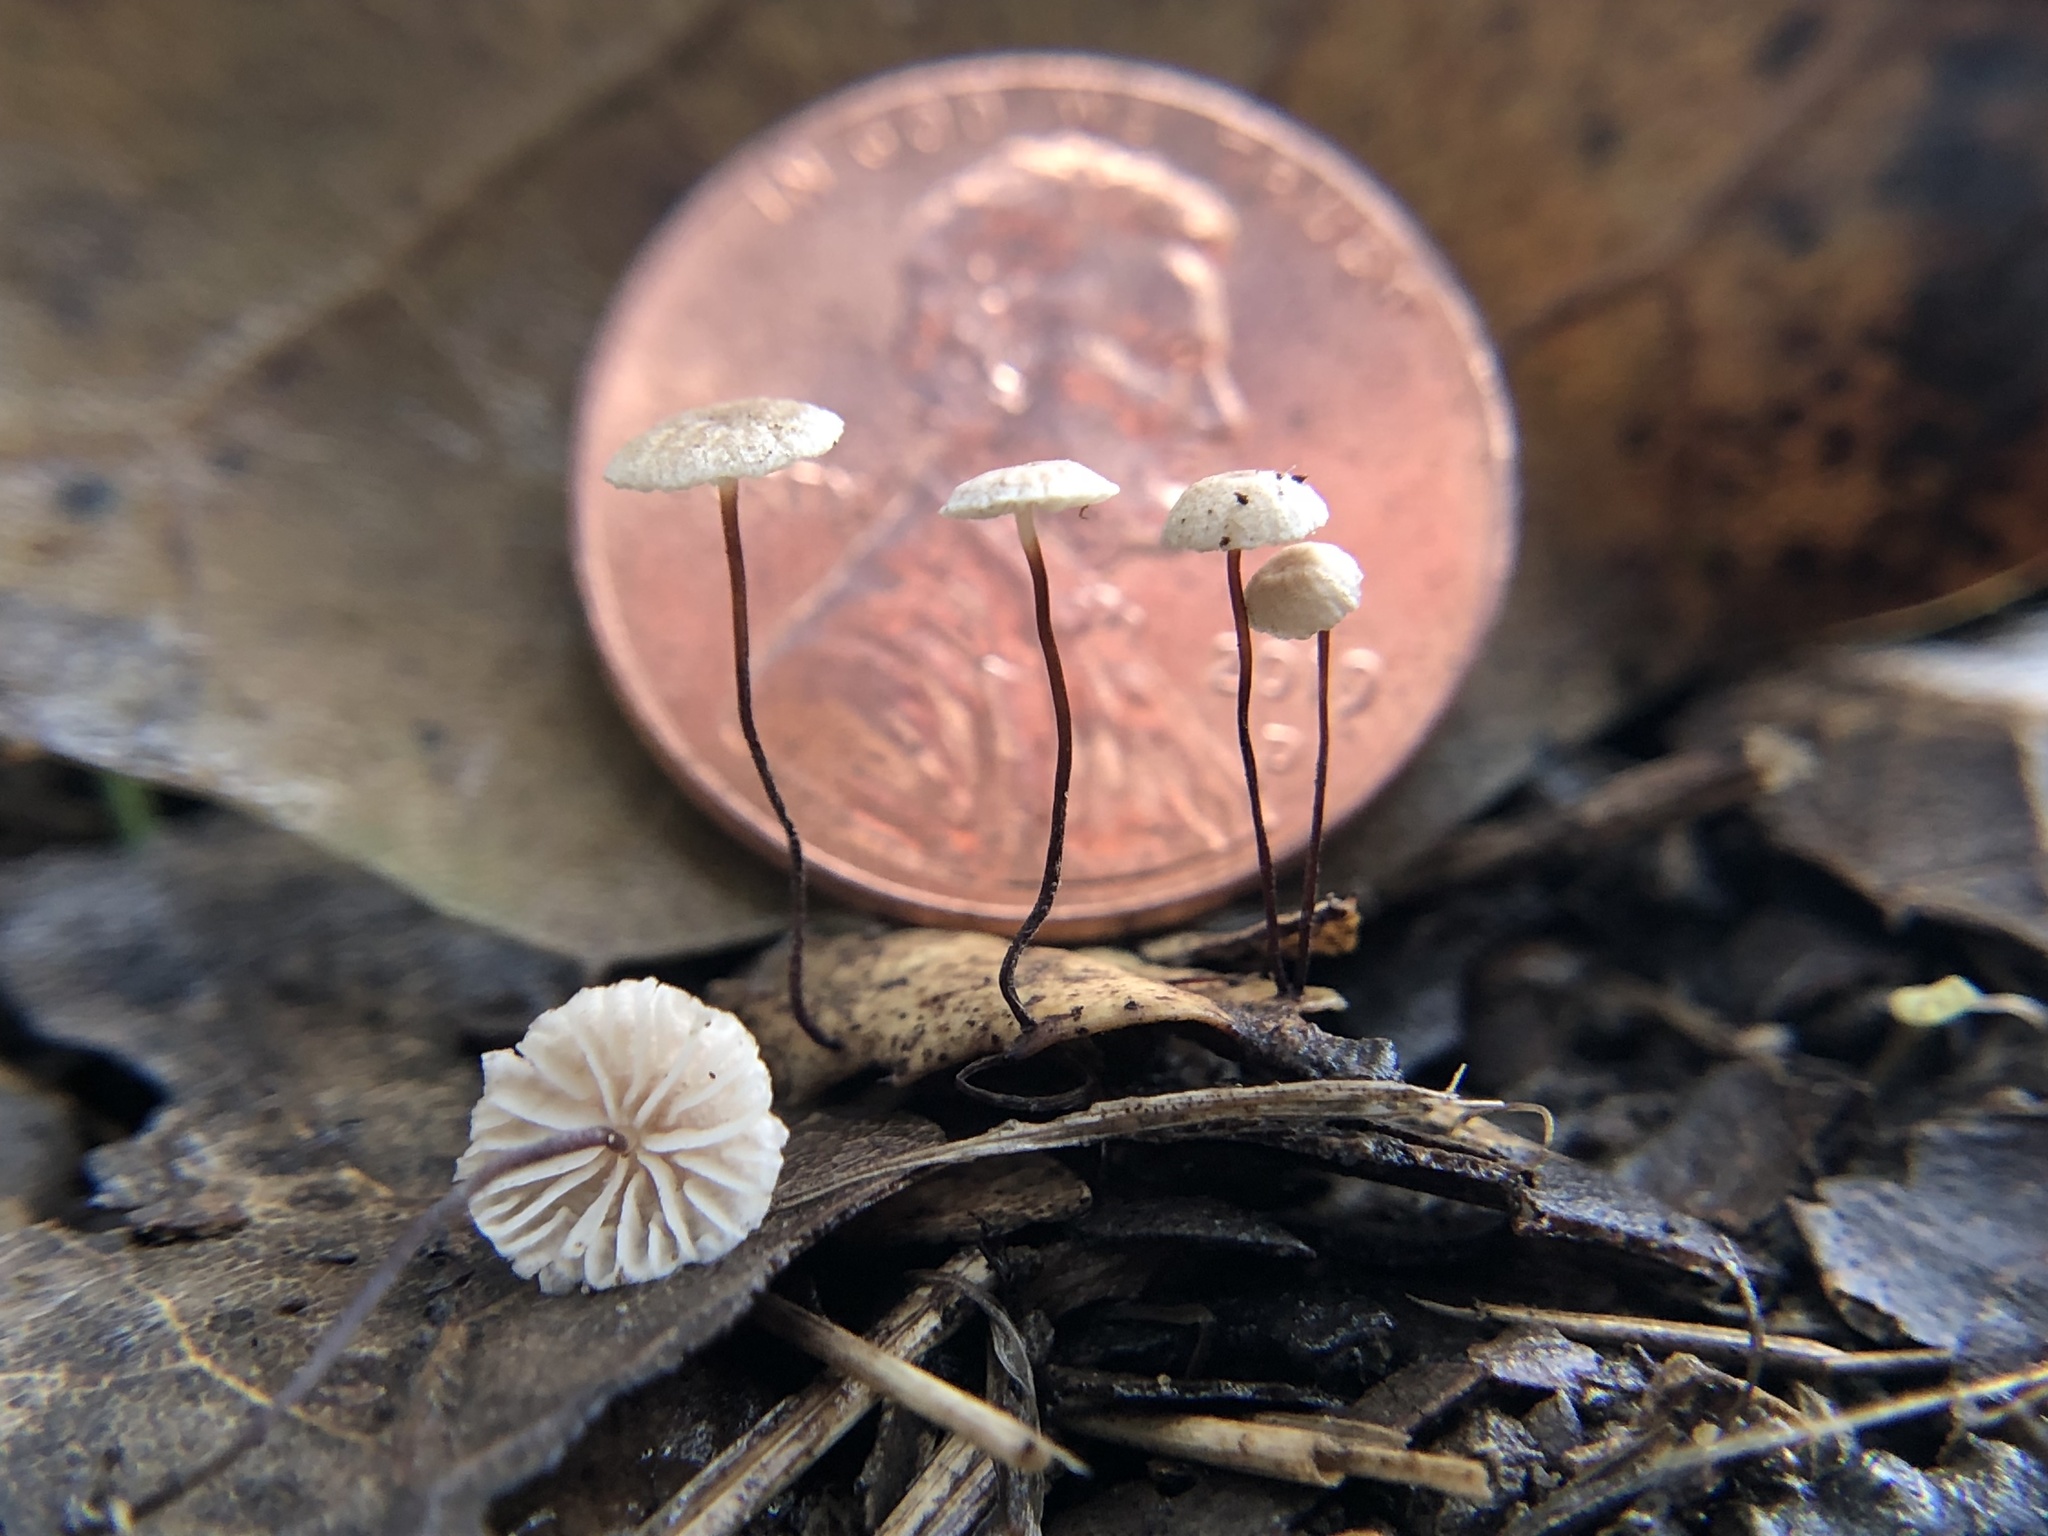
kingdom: Fungi
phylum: Basidiomycota
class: Agaricomycetes
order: Agaricales
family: Omphalotaceae
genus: Collybiopsis
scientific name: Collybiopsis quercophila
